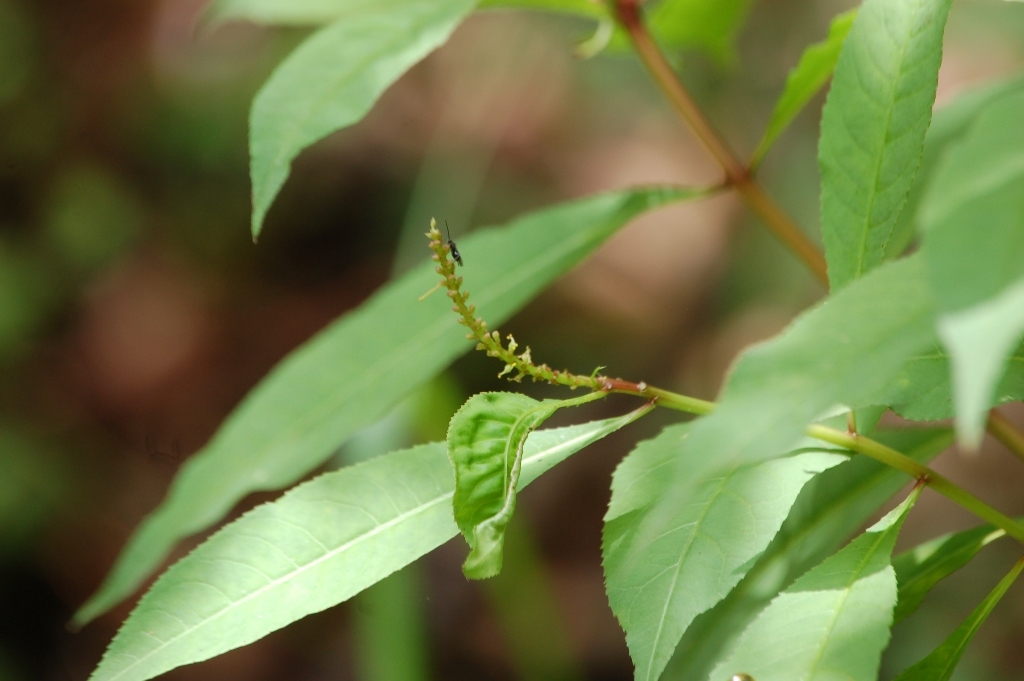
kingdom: Plantae
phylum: Tracheophyta
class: Magnoliopsida
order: Malpighiales
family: Euphorbiaceae
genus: Stillingia
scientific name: Stillingia acutifolia
